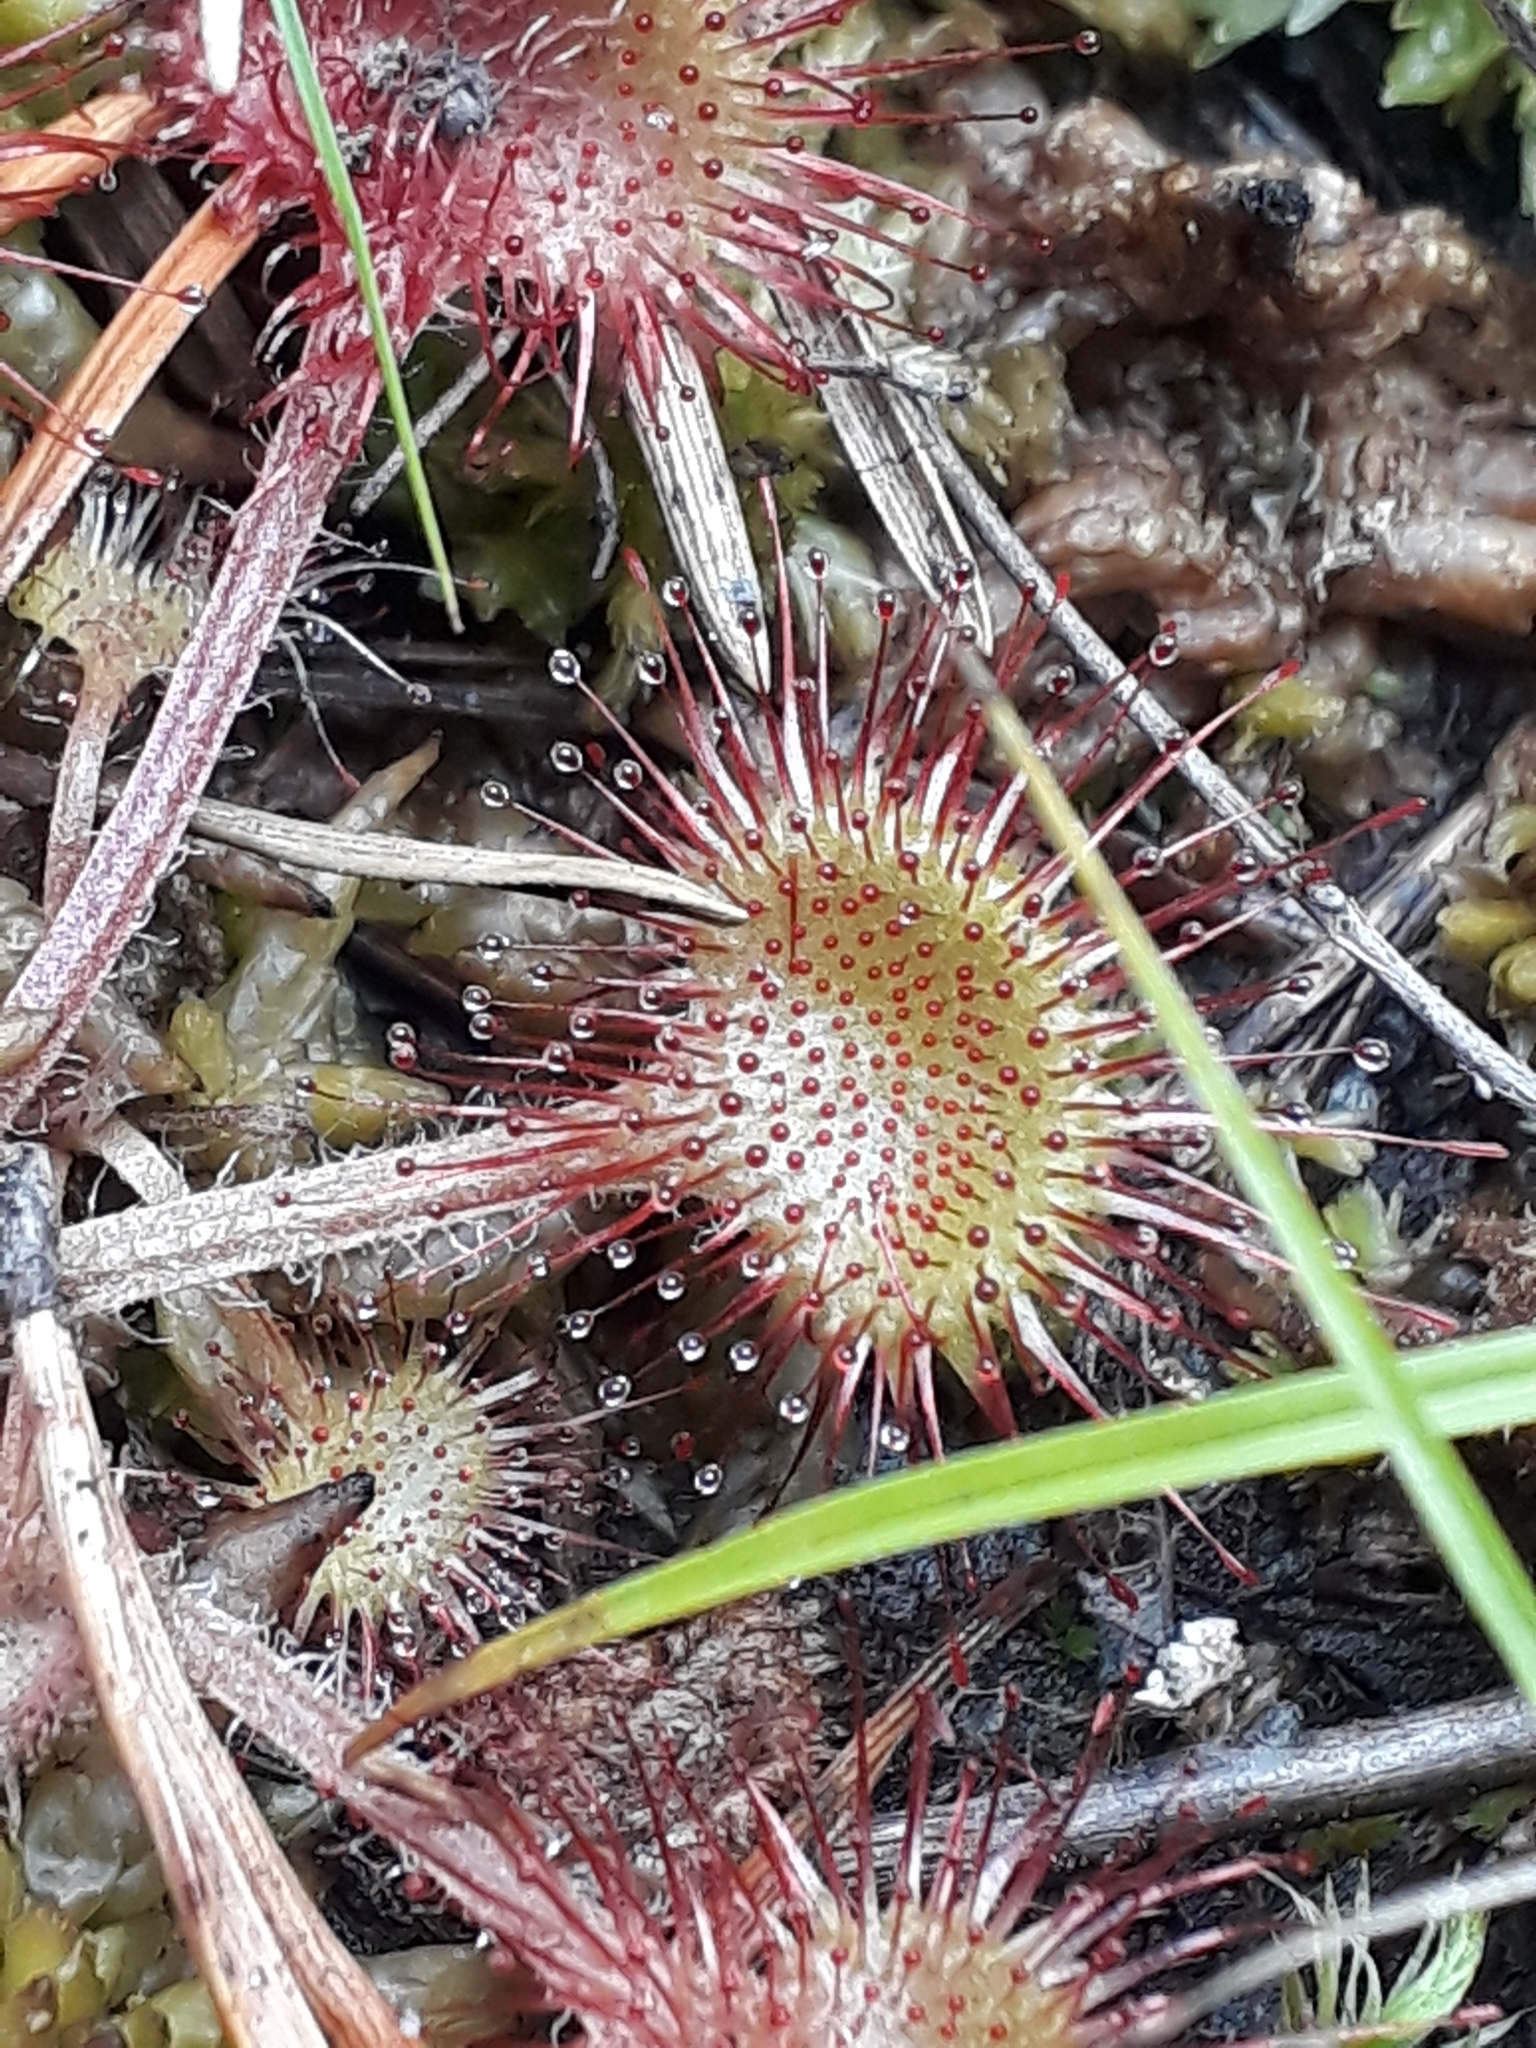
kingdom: Plantae
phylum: Tracheophyta
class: Magnoliopsida
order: Caryophyllales
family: Droseraceae
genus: Drosera
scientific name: Drosera rotundifolia
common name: Round-leaved sundew
